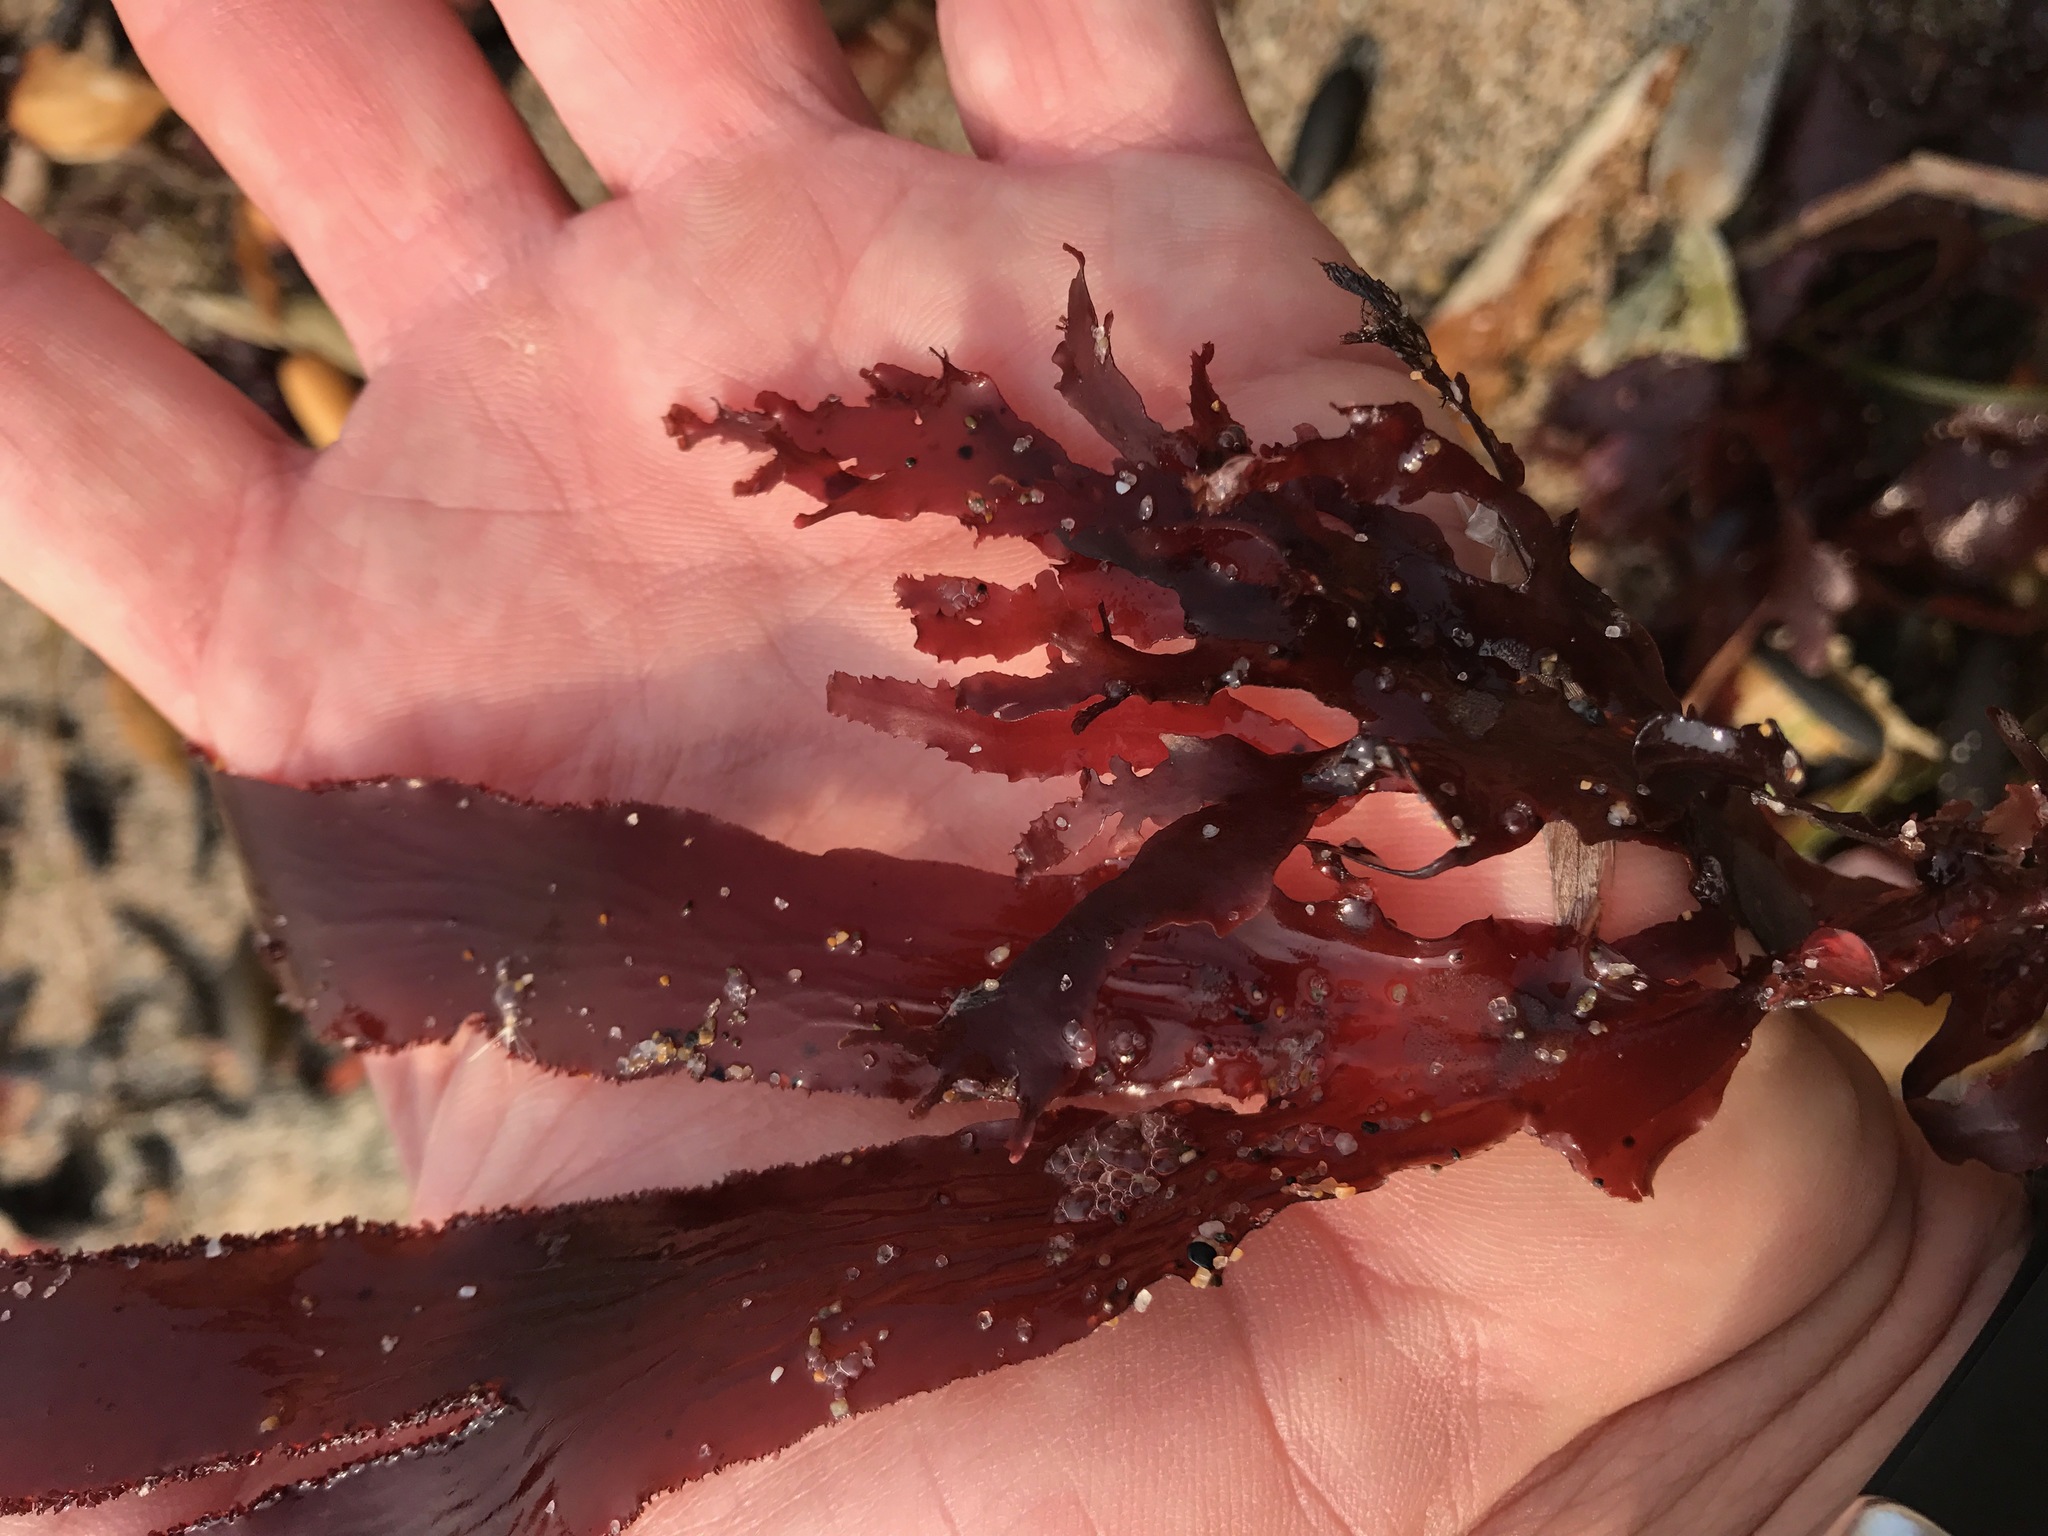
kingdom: Plantae
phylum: Rhodophyta
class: Florideophyceae
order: Ceramiales
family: Delesseriaceae
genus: Cryptopleura
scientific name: Cryptopleura ruprechtiana
